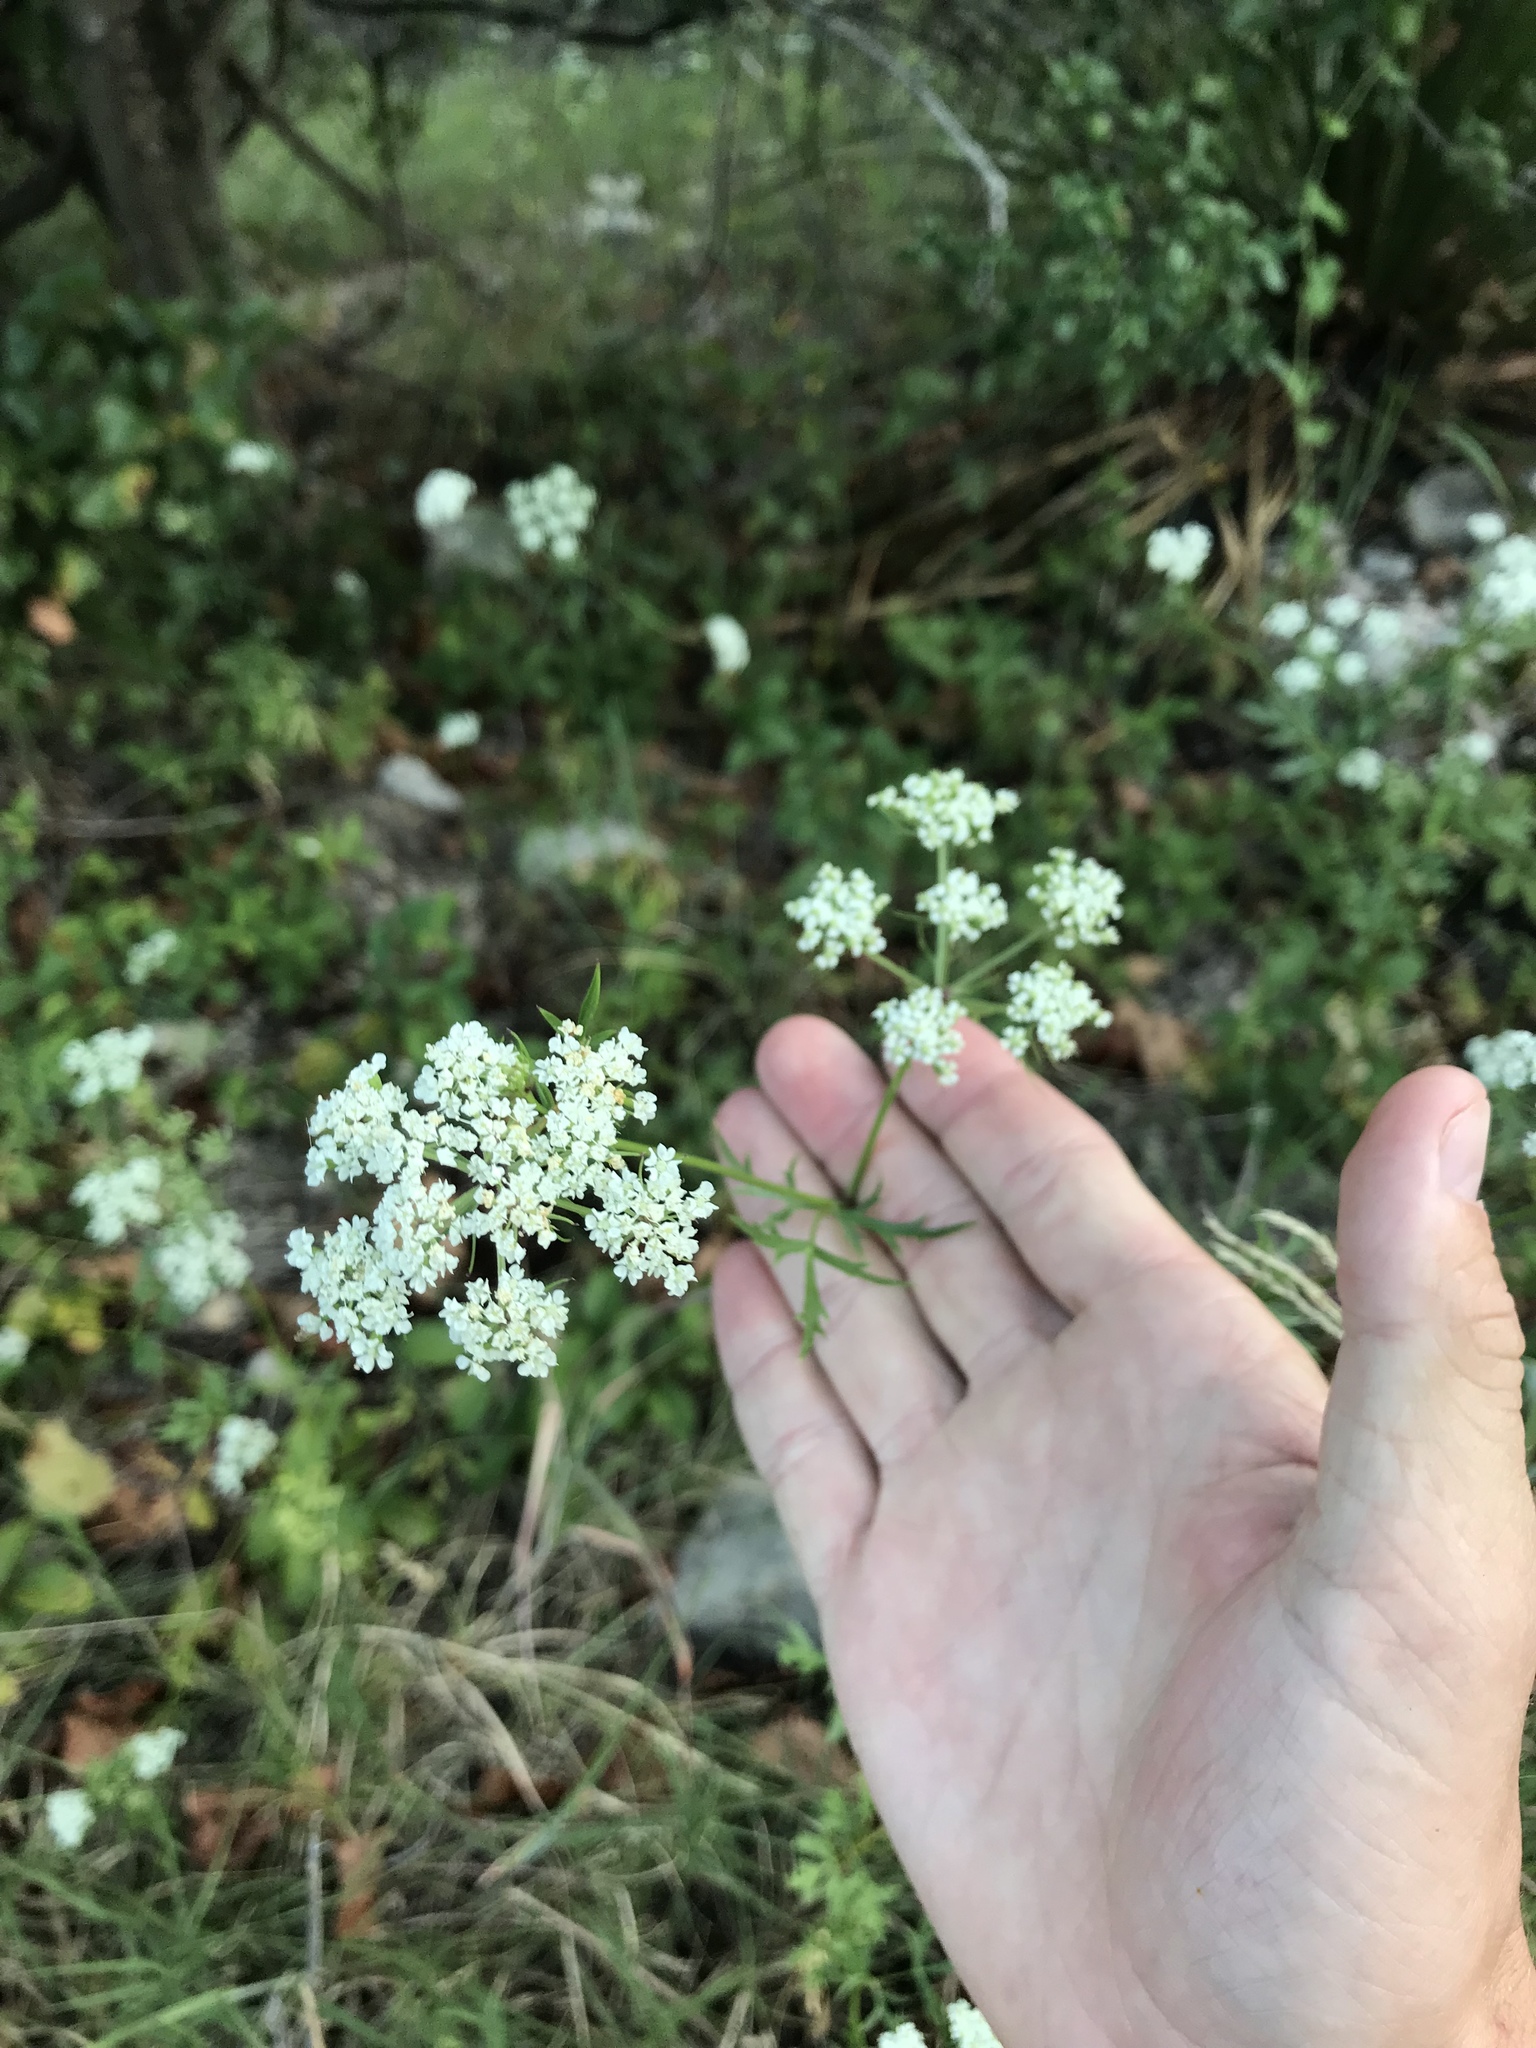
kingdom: Plantae
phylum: Tracheophyta
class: Magnoliopsida
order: Apiales
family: Apiaceae
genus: Daucosma
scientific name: Daucosma laciniatum
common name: Meadow-parasol
